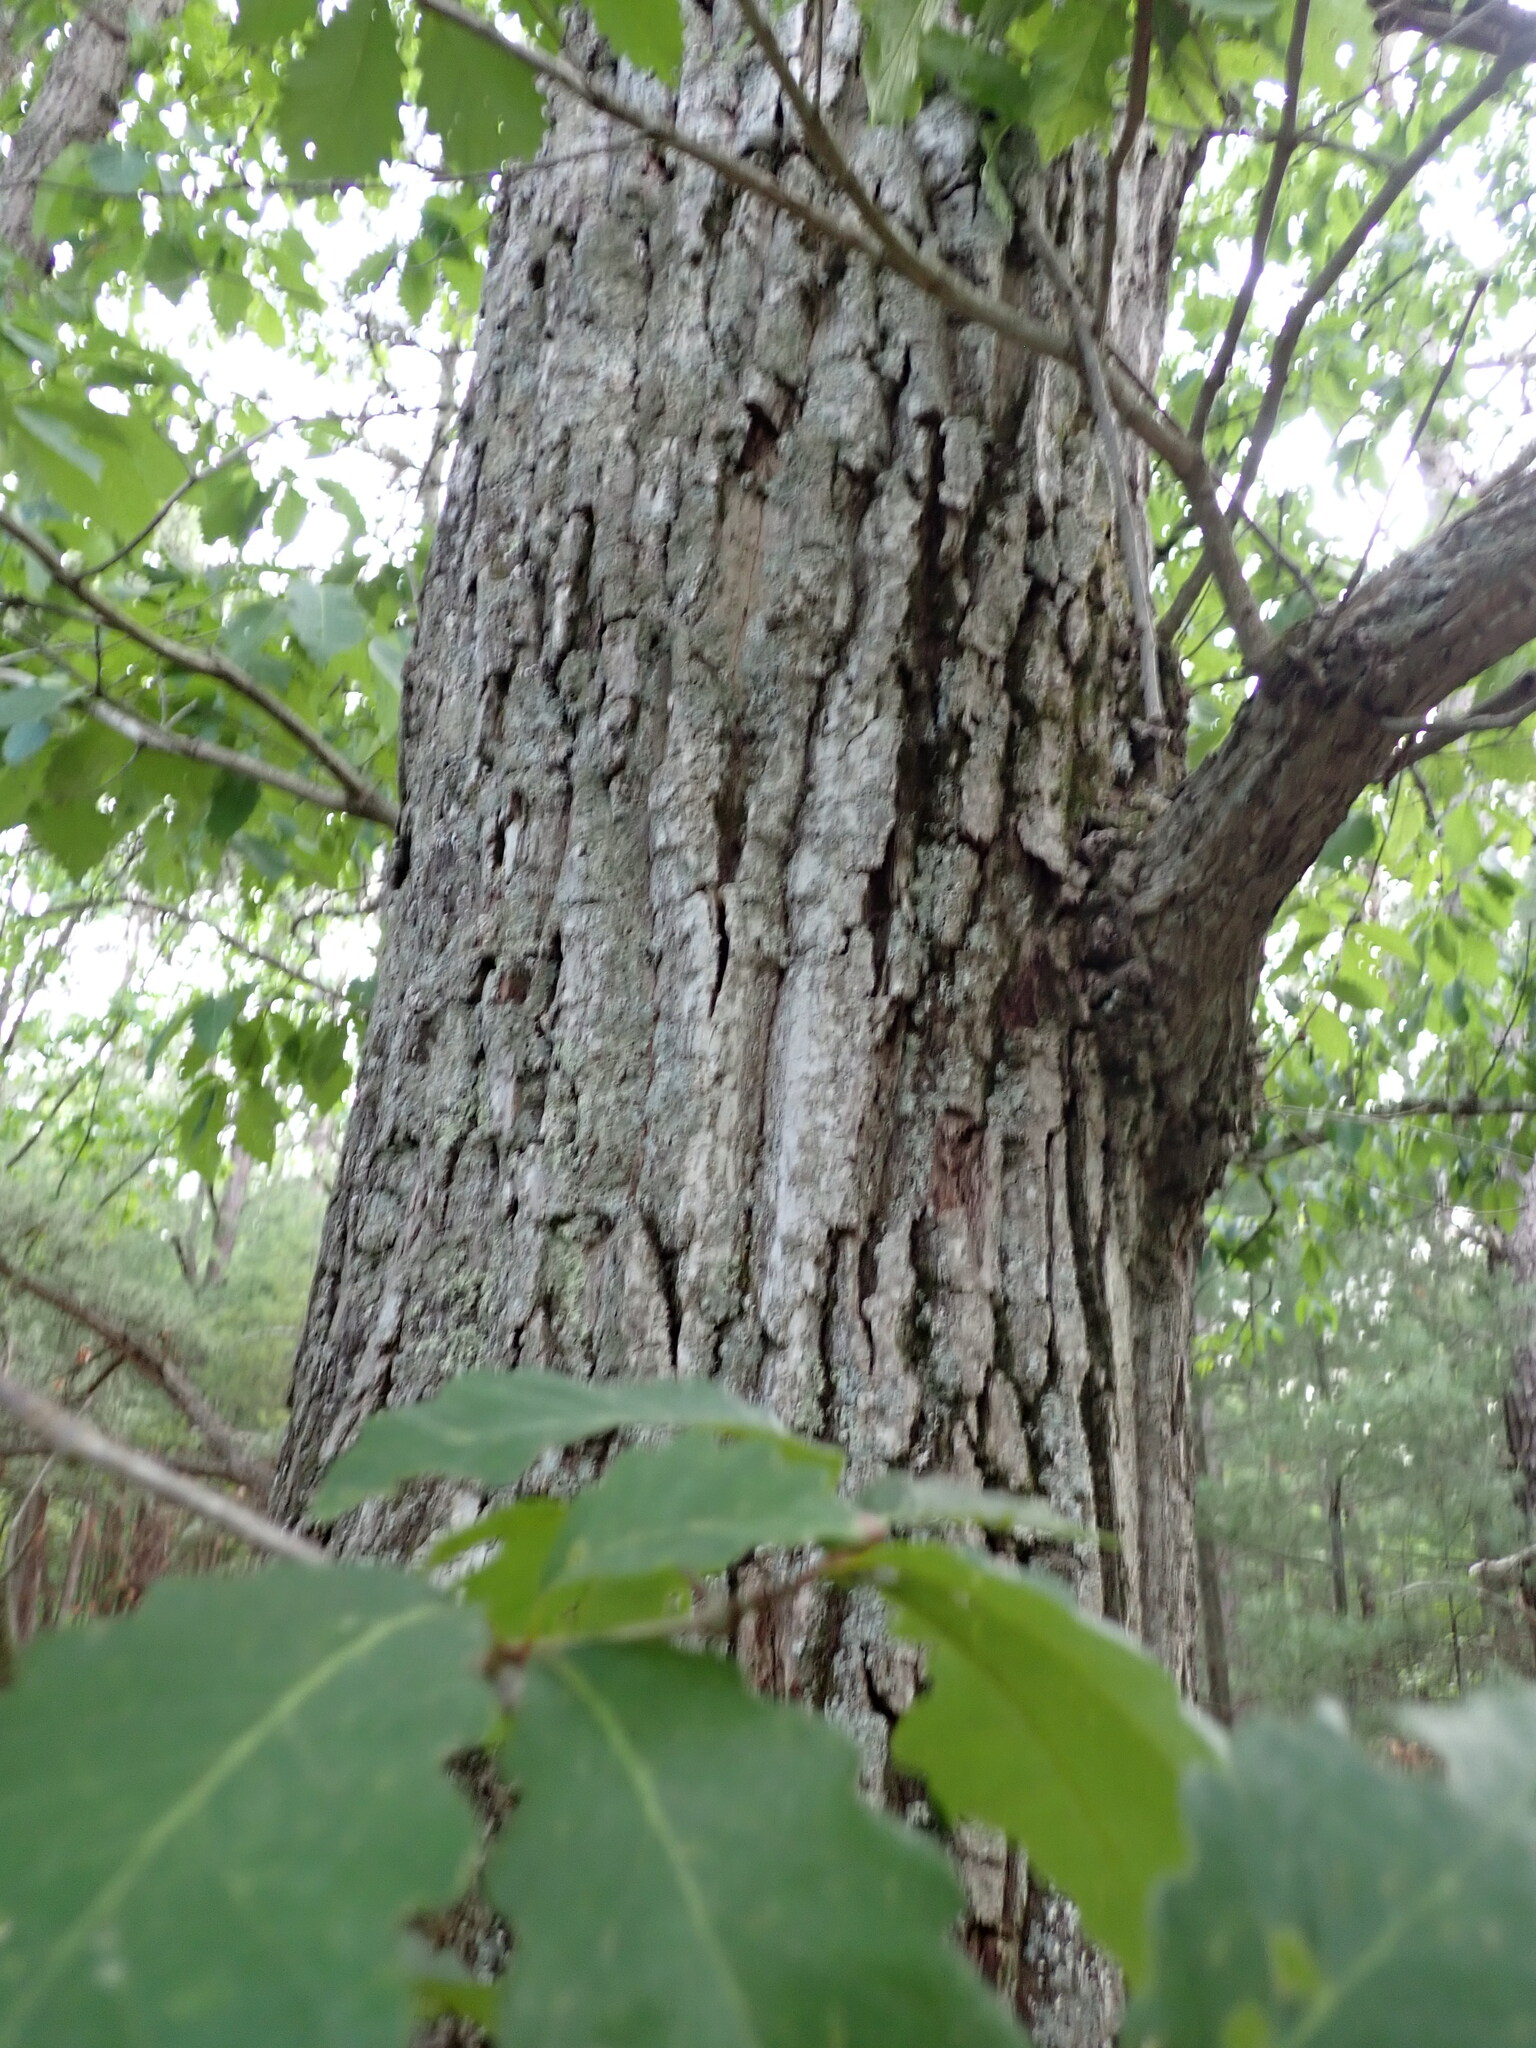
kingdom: Plantae
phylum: Tracheophyta
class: Magnoliopsida
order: Fagales
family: Fagaceae
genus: Quercus
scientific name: Quercus montana
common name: Chestnut oak
